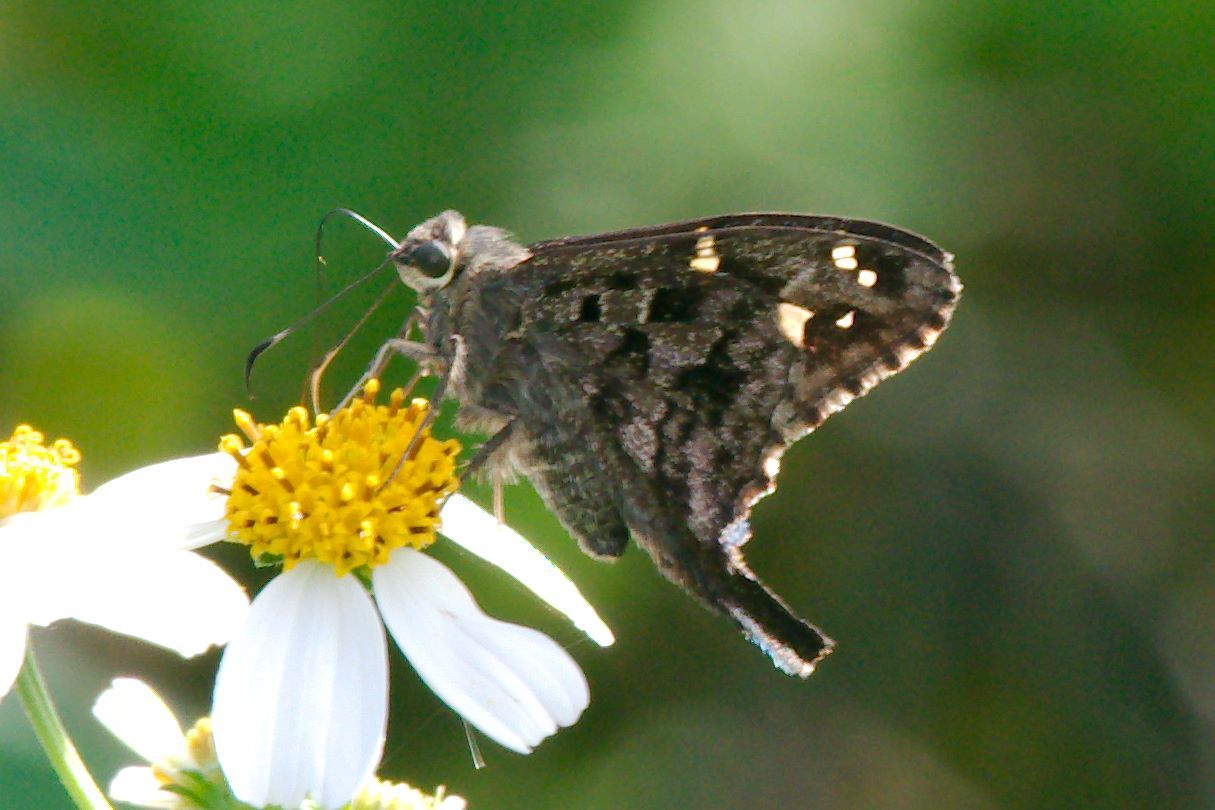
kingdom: Animalia
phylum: Arthropoda
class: Insecta
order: Lepidoptera
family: Hesperiidae
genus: Thorybes
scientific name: Thorybes
